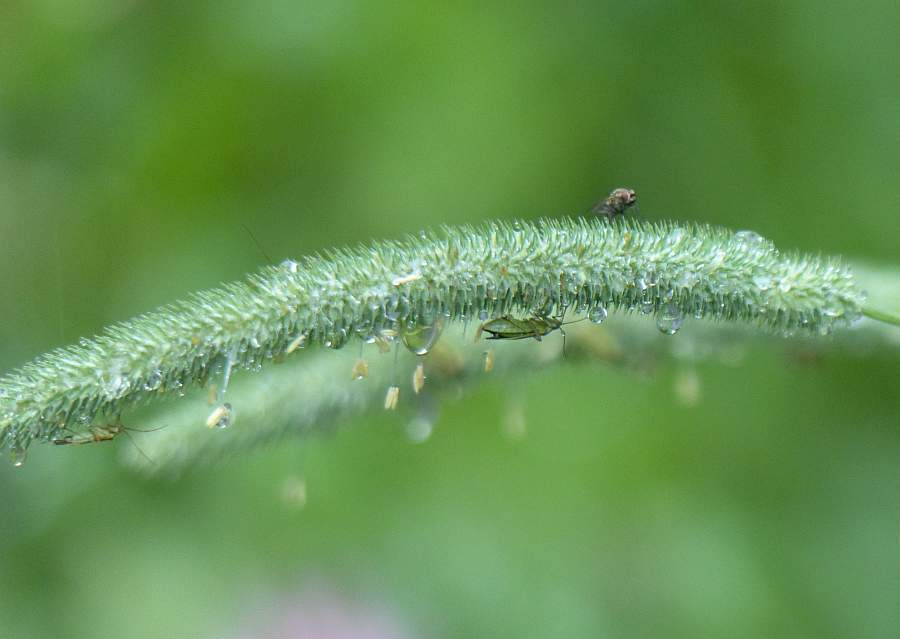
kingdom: Plantae
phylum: Tracheophyta
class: Liliopsida
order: Poales
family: Poaceae
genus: Phleum
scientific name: Phleum pratense
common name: Timothy grass
